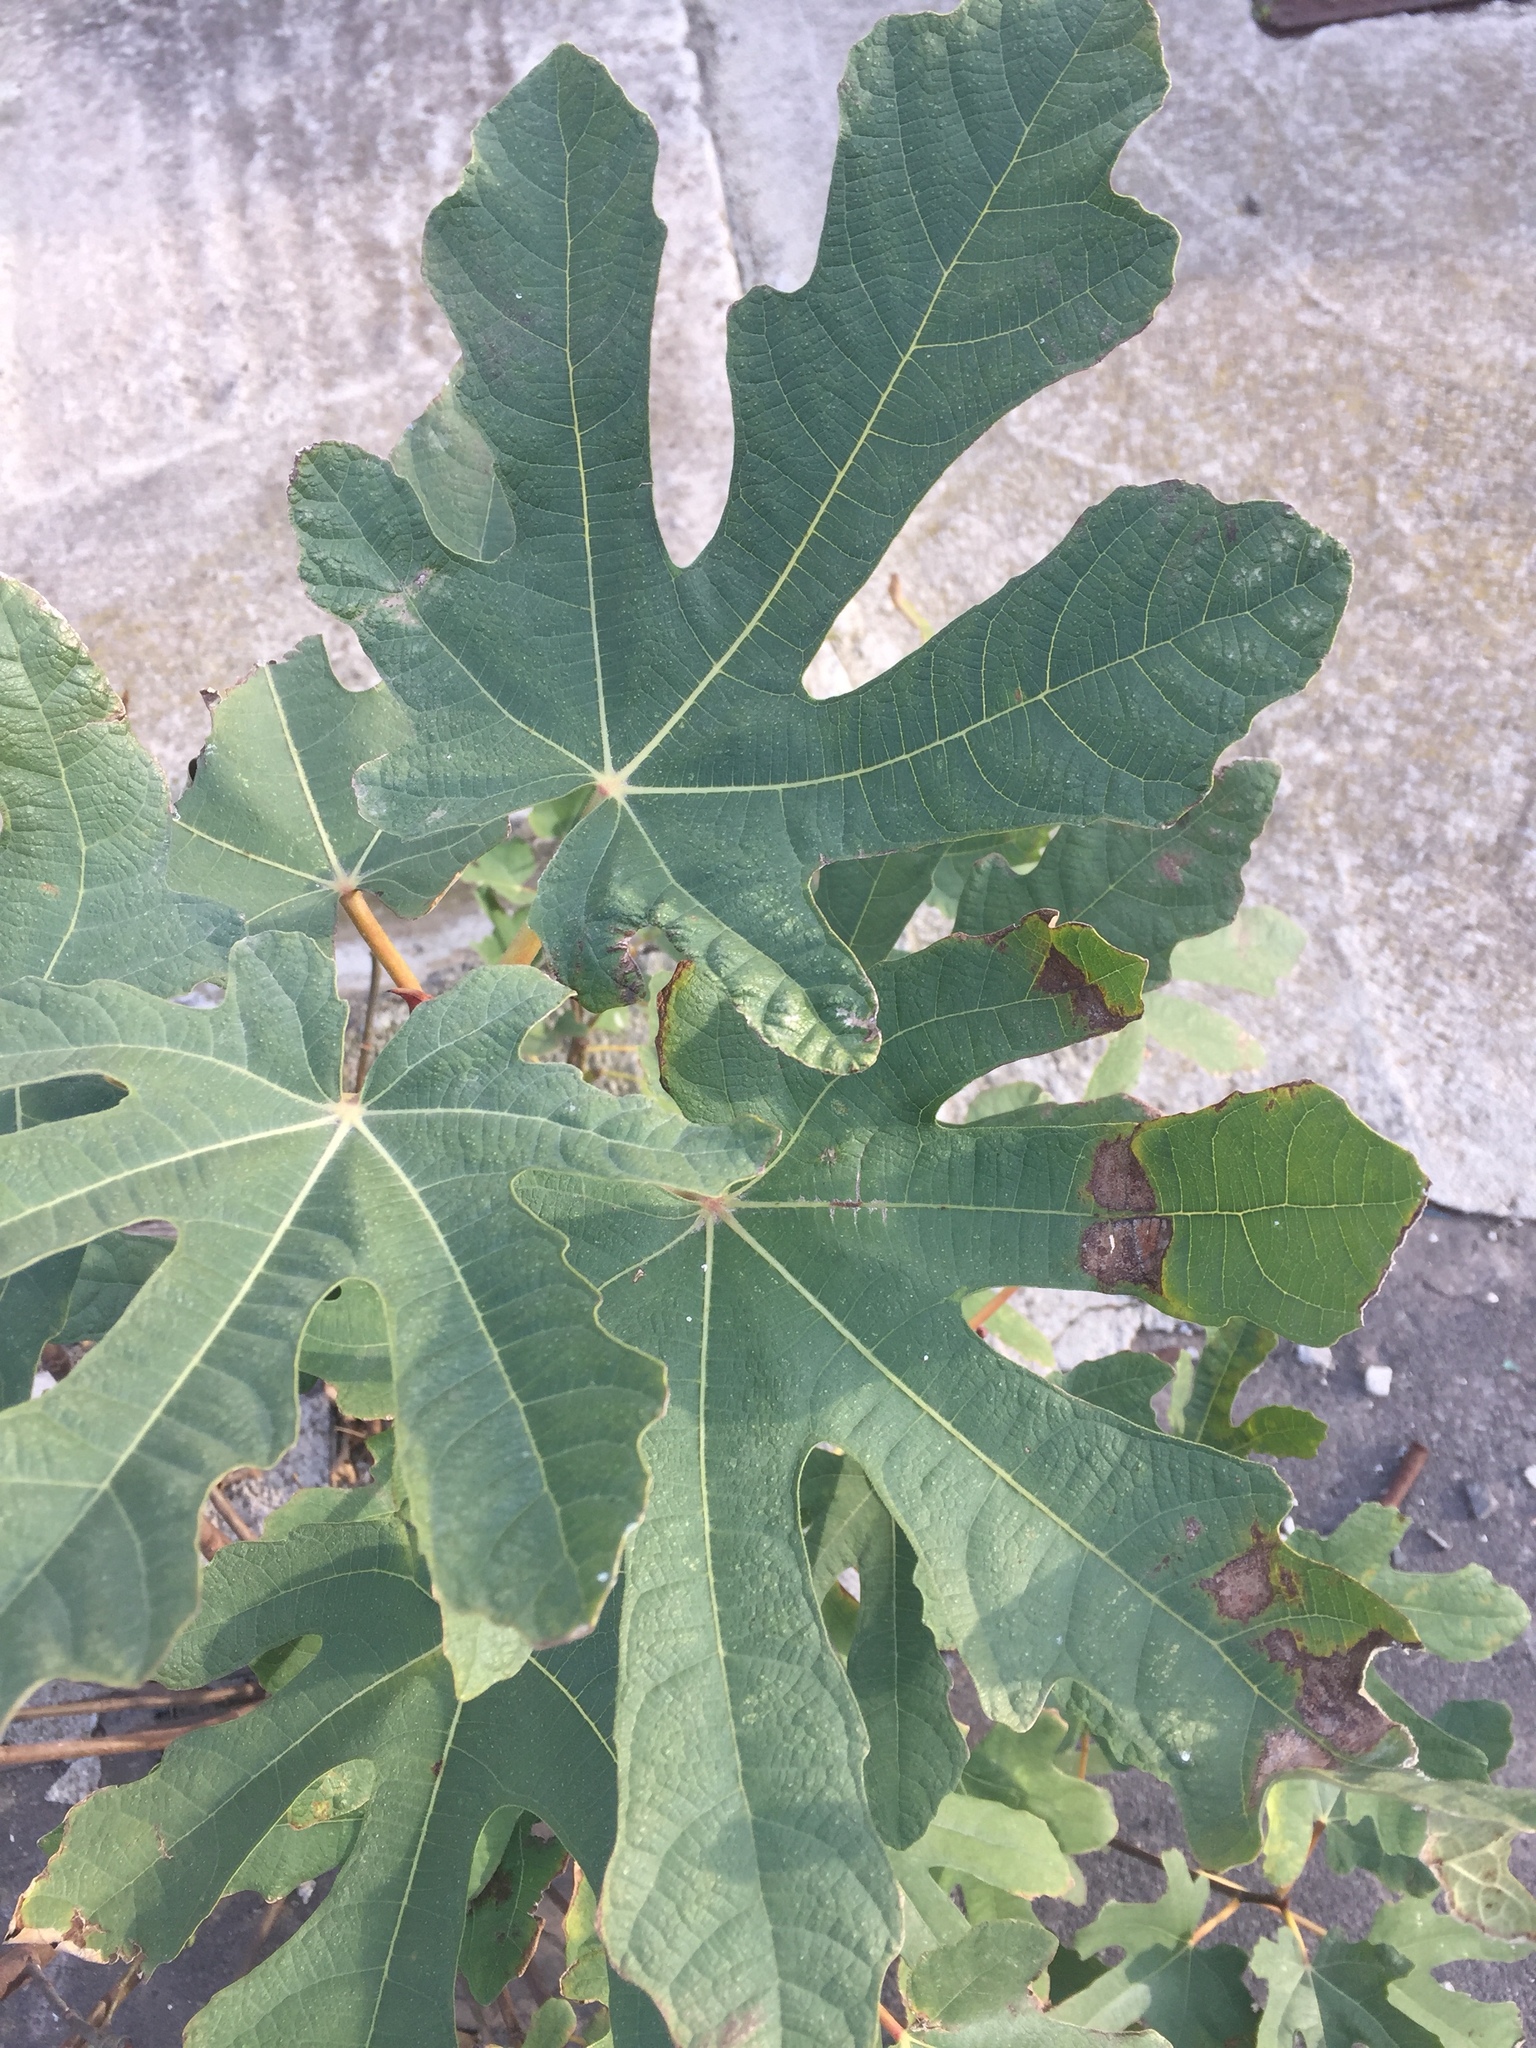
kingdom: Plantae
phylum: Tracheophyta
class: Magnoliopsida
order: Rosales
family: Moraceae
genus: Ficus
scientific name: Ficus carica
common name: Fig
